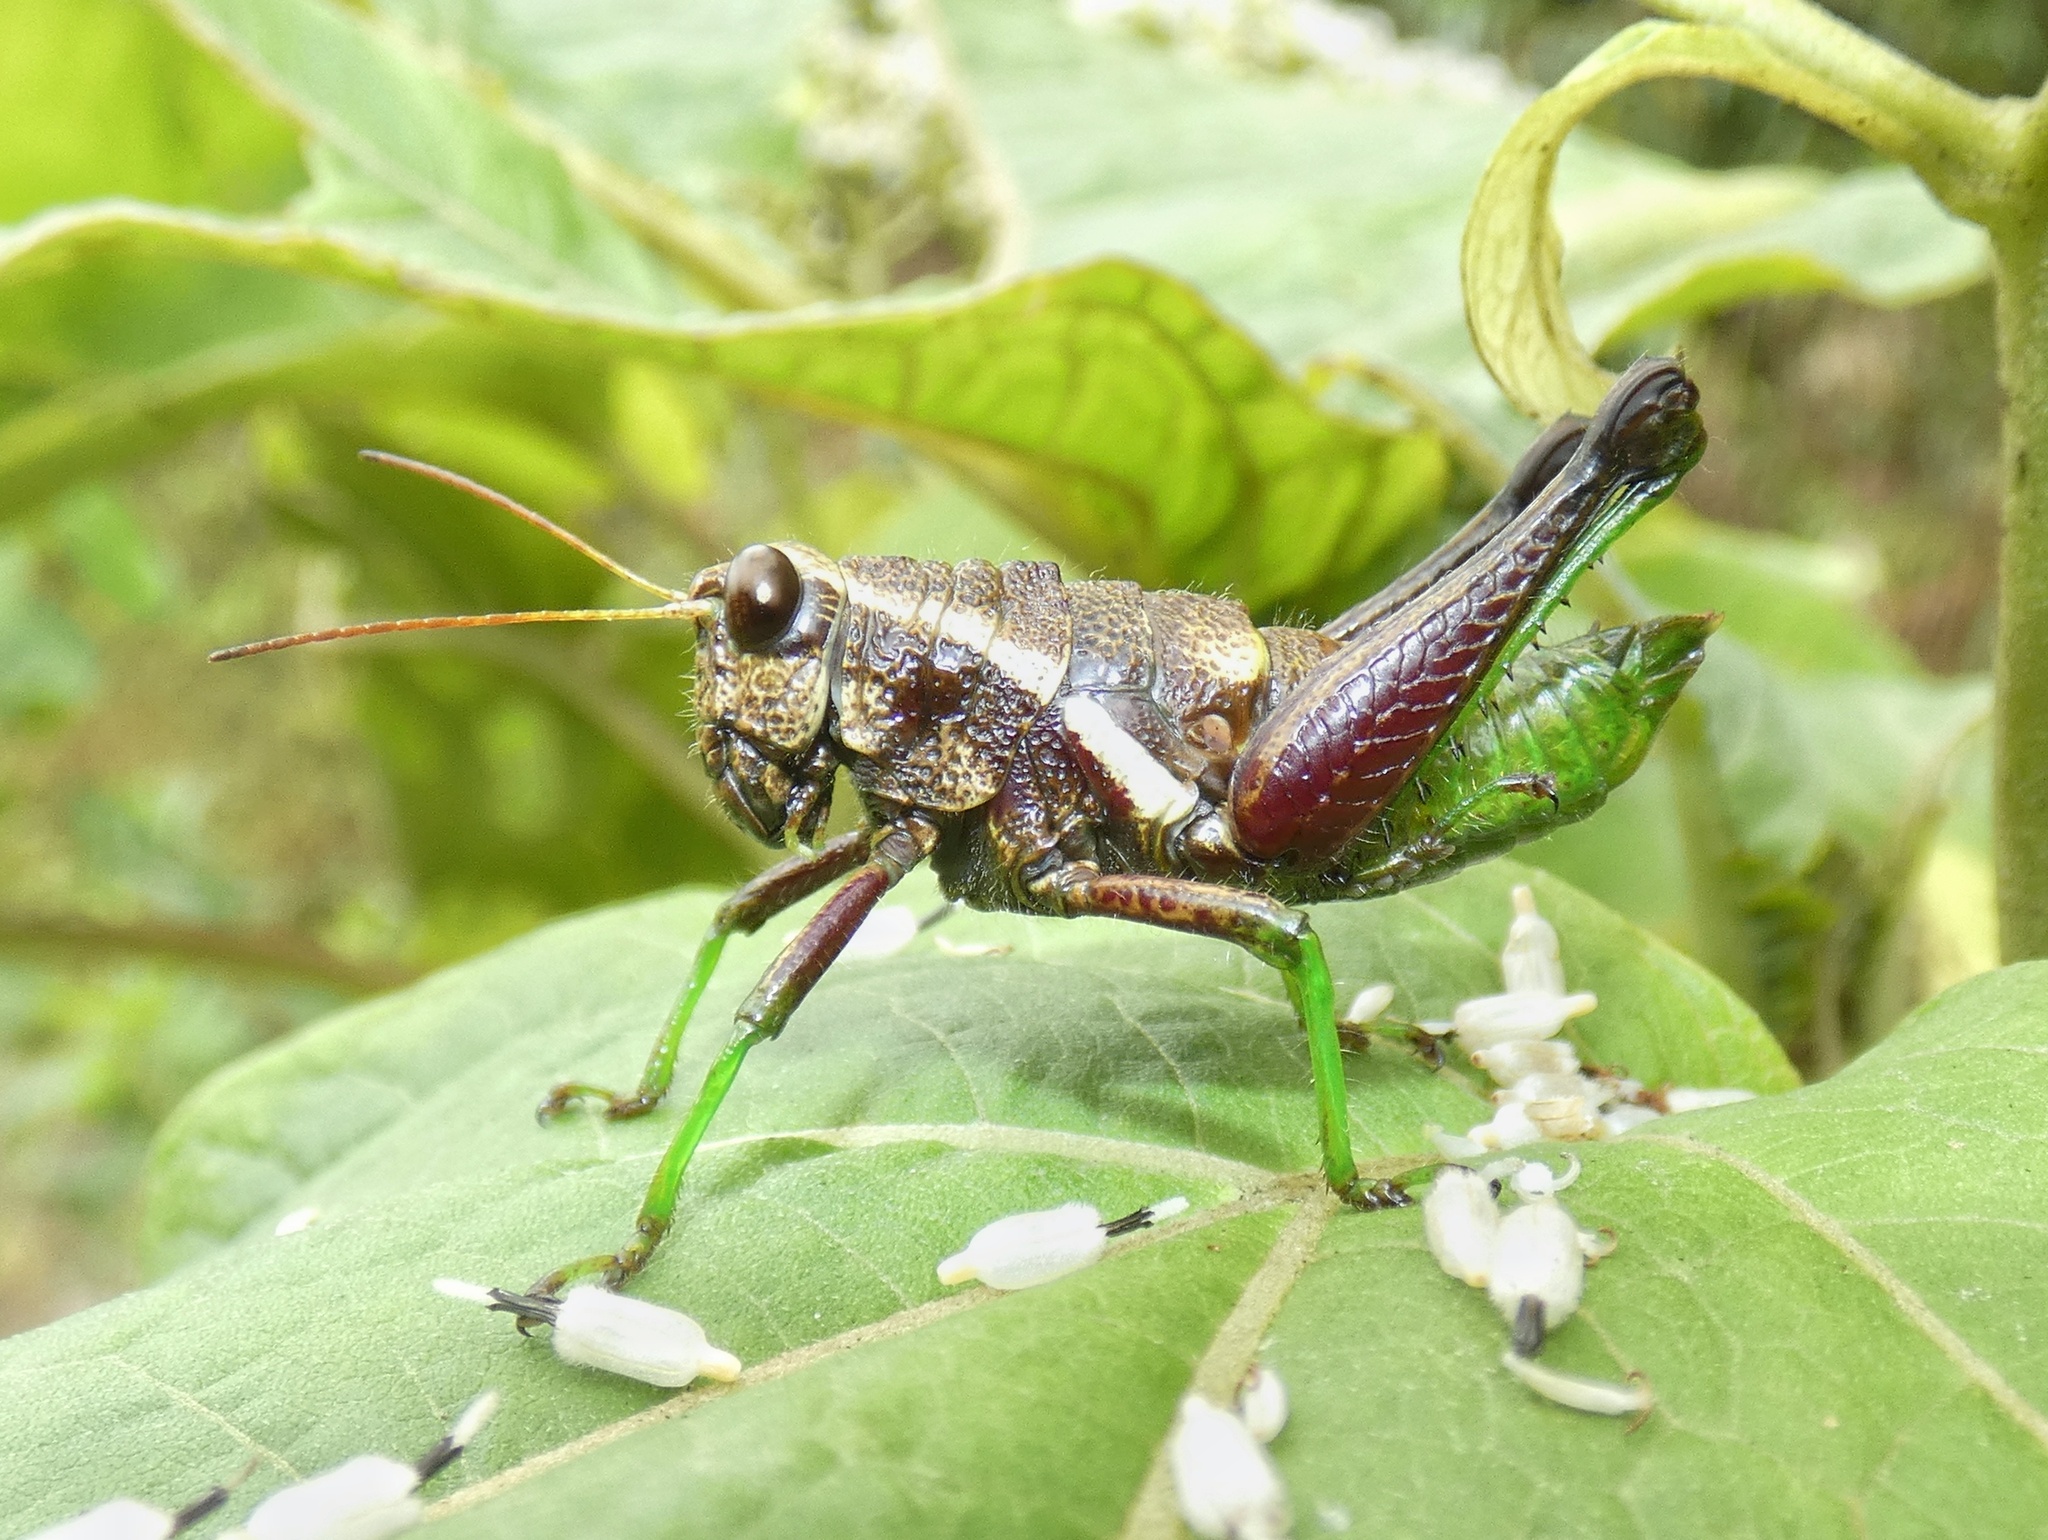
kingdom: Animalia
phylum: Arthropoda
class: Insecta
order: Orthoptera
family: Acrididae
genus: Rhachicreagra
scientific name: Rhachicreagra magnifica
